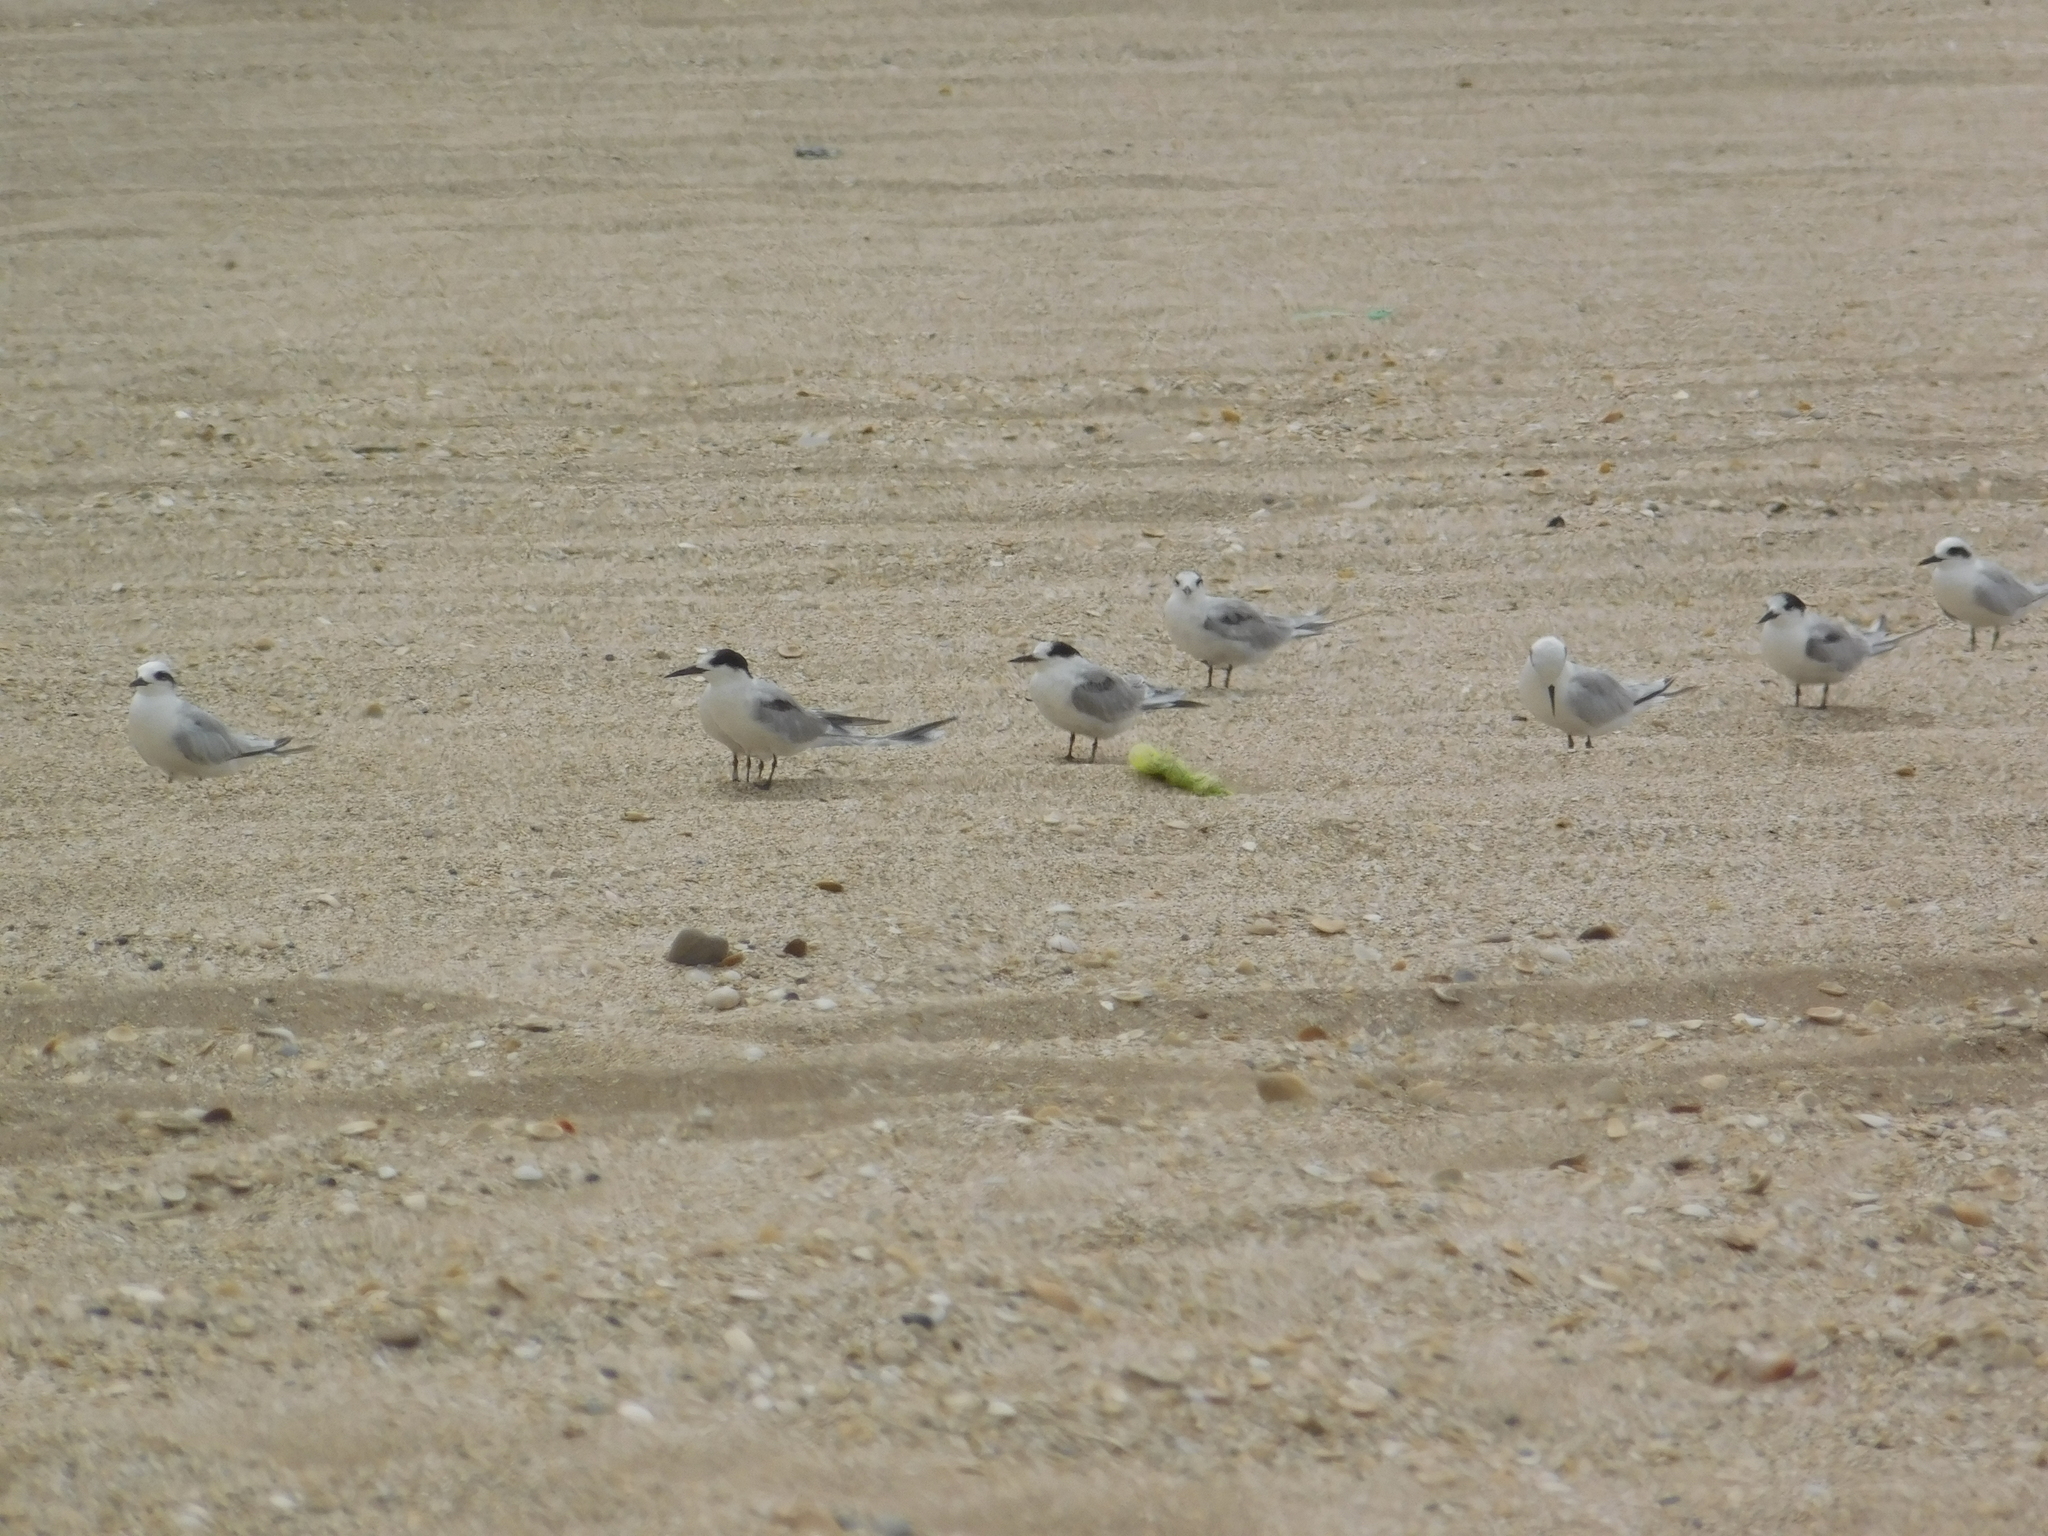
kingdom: Animalia
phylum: Chordata
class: Aves
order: Charadriiformes
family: Laridae
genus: Sterna
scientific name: Sterna hirundo
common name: Common tern
